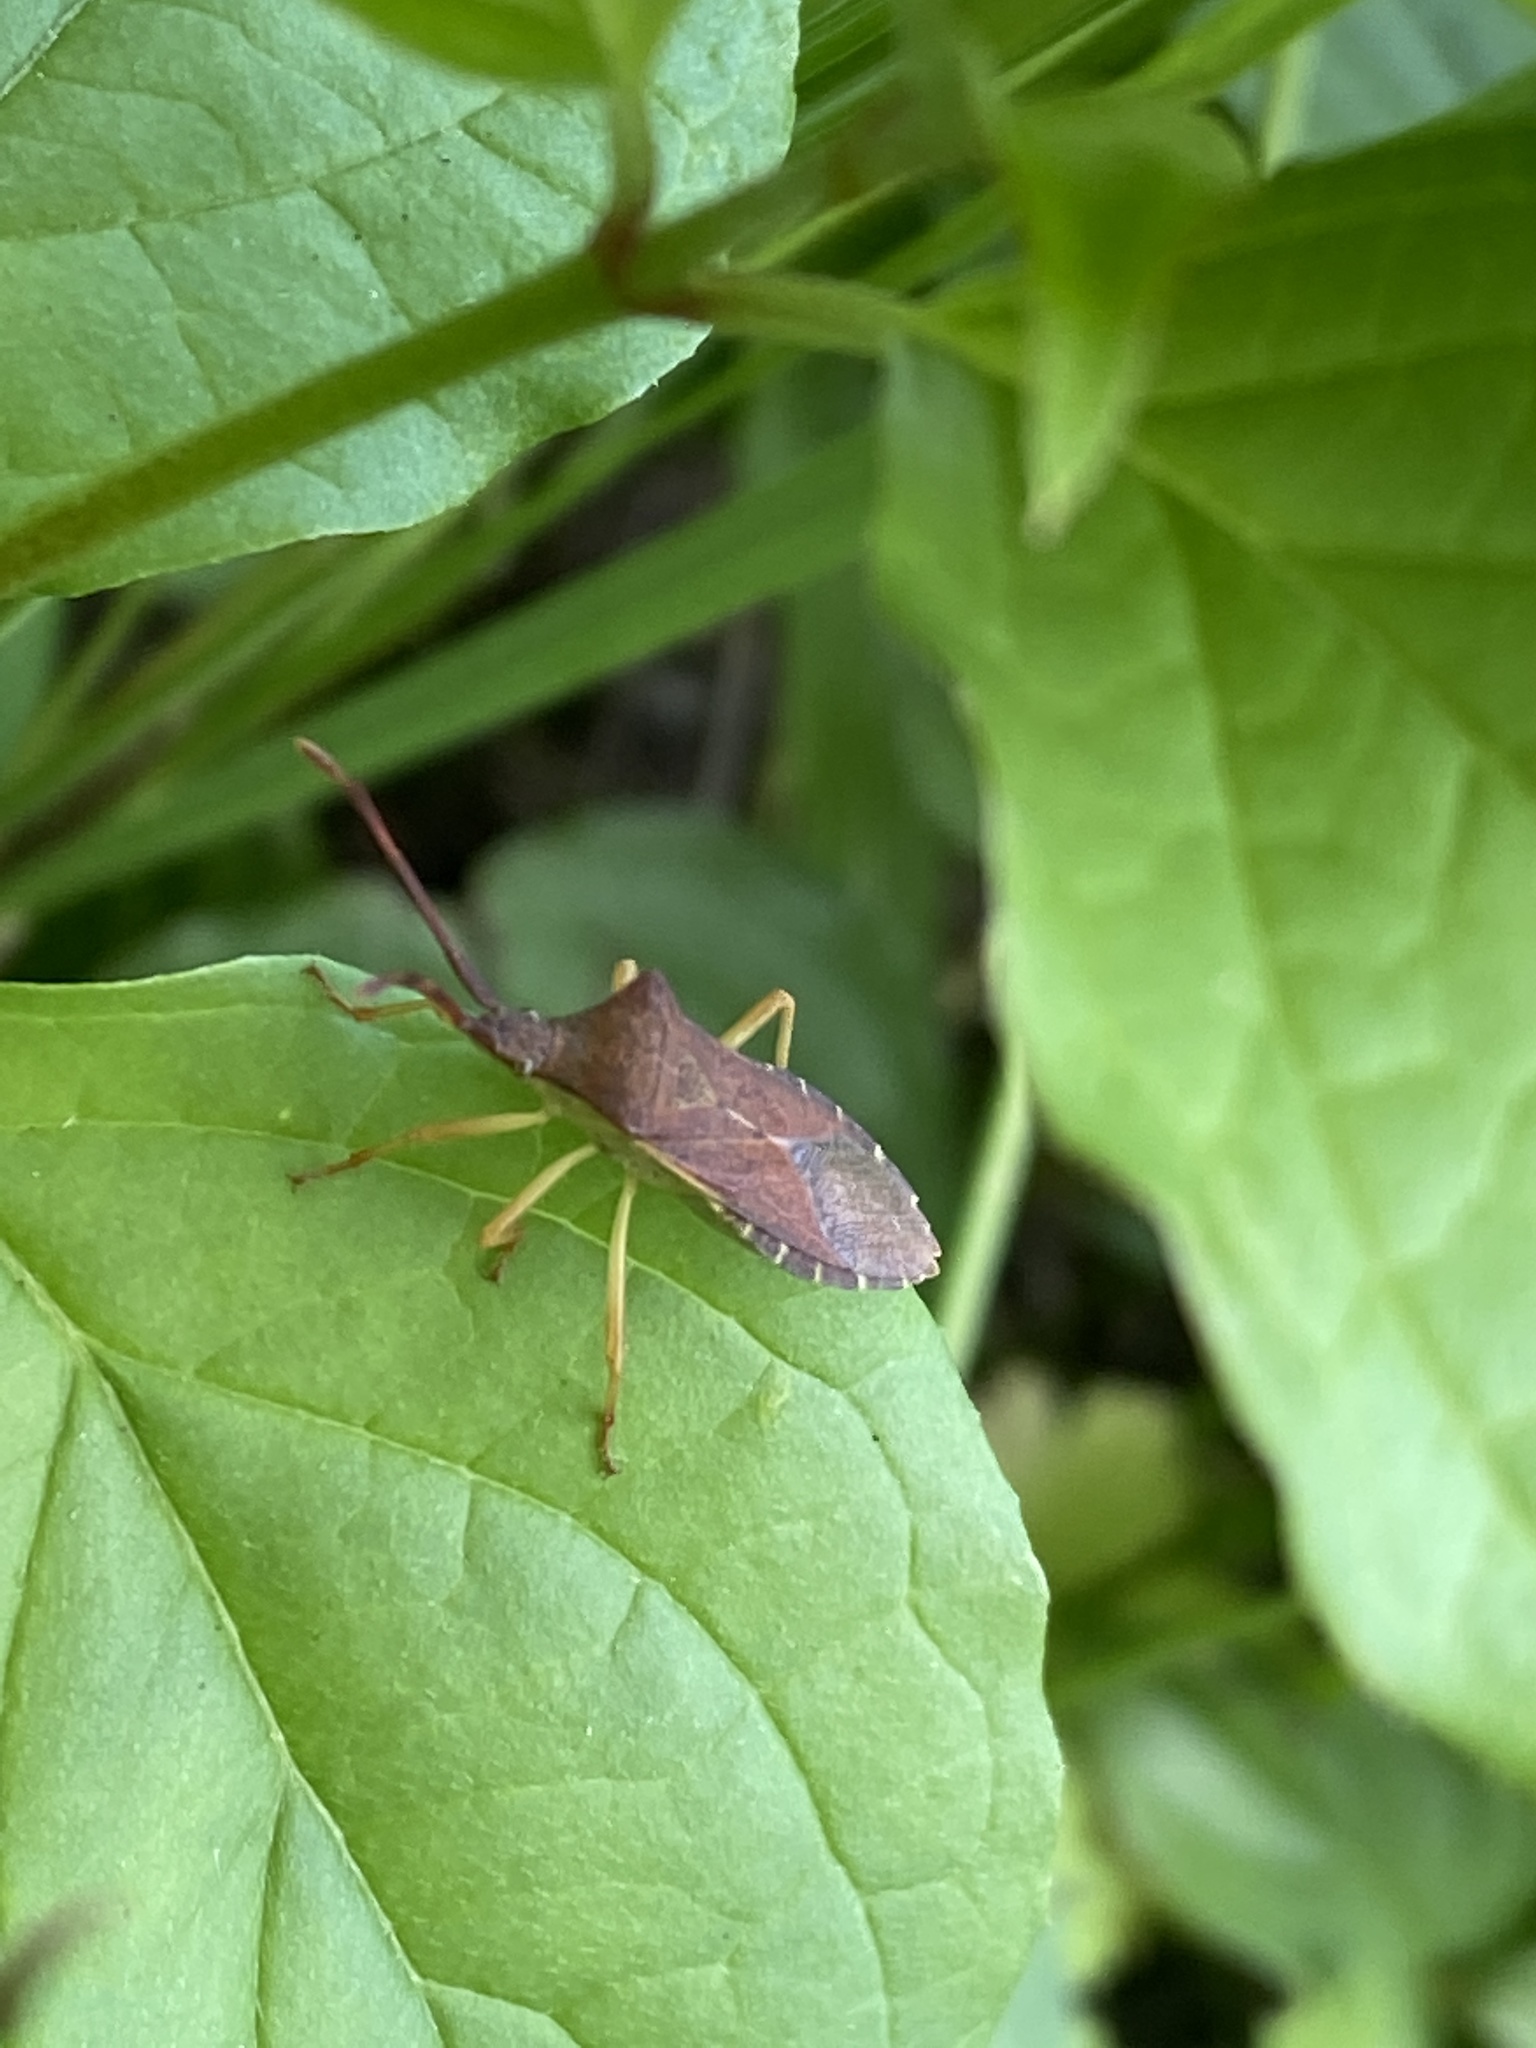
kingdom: Animalia
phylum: Arthropoda
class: Insecta
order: Hemiptera
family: Coreidae
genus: Gonocerus
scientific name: Gonocerus acuteangulatus
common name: Box bug
